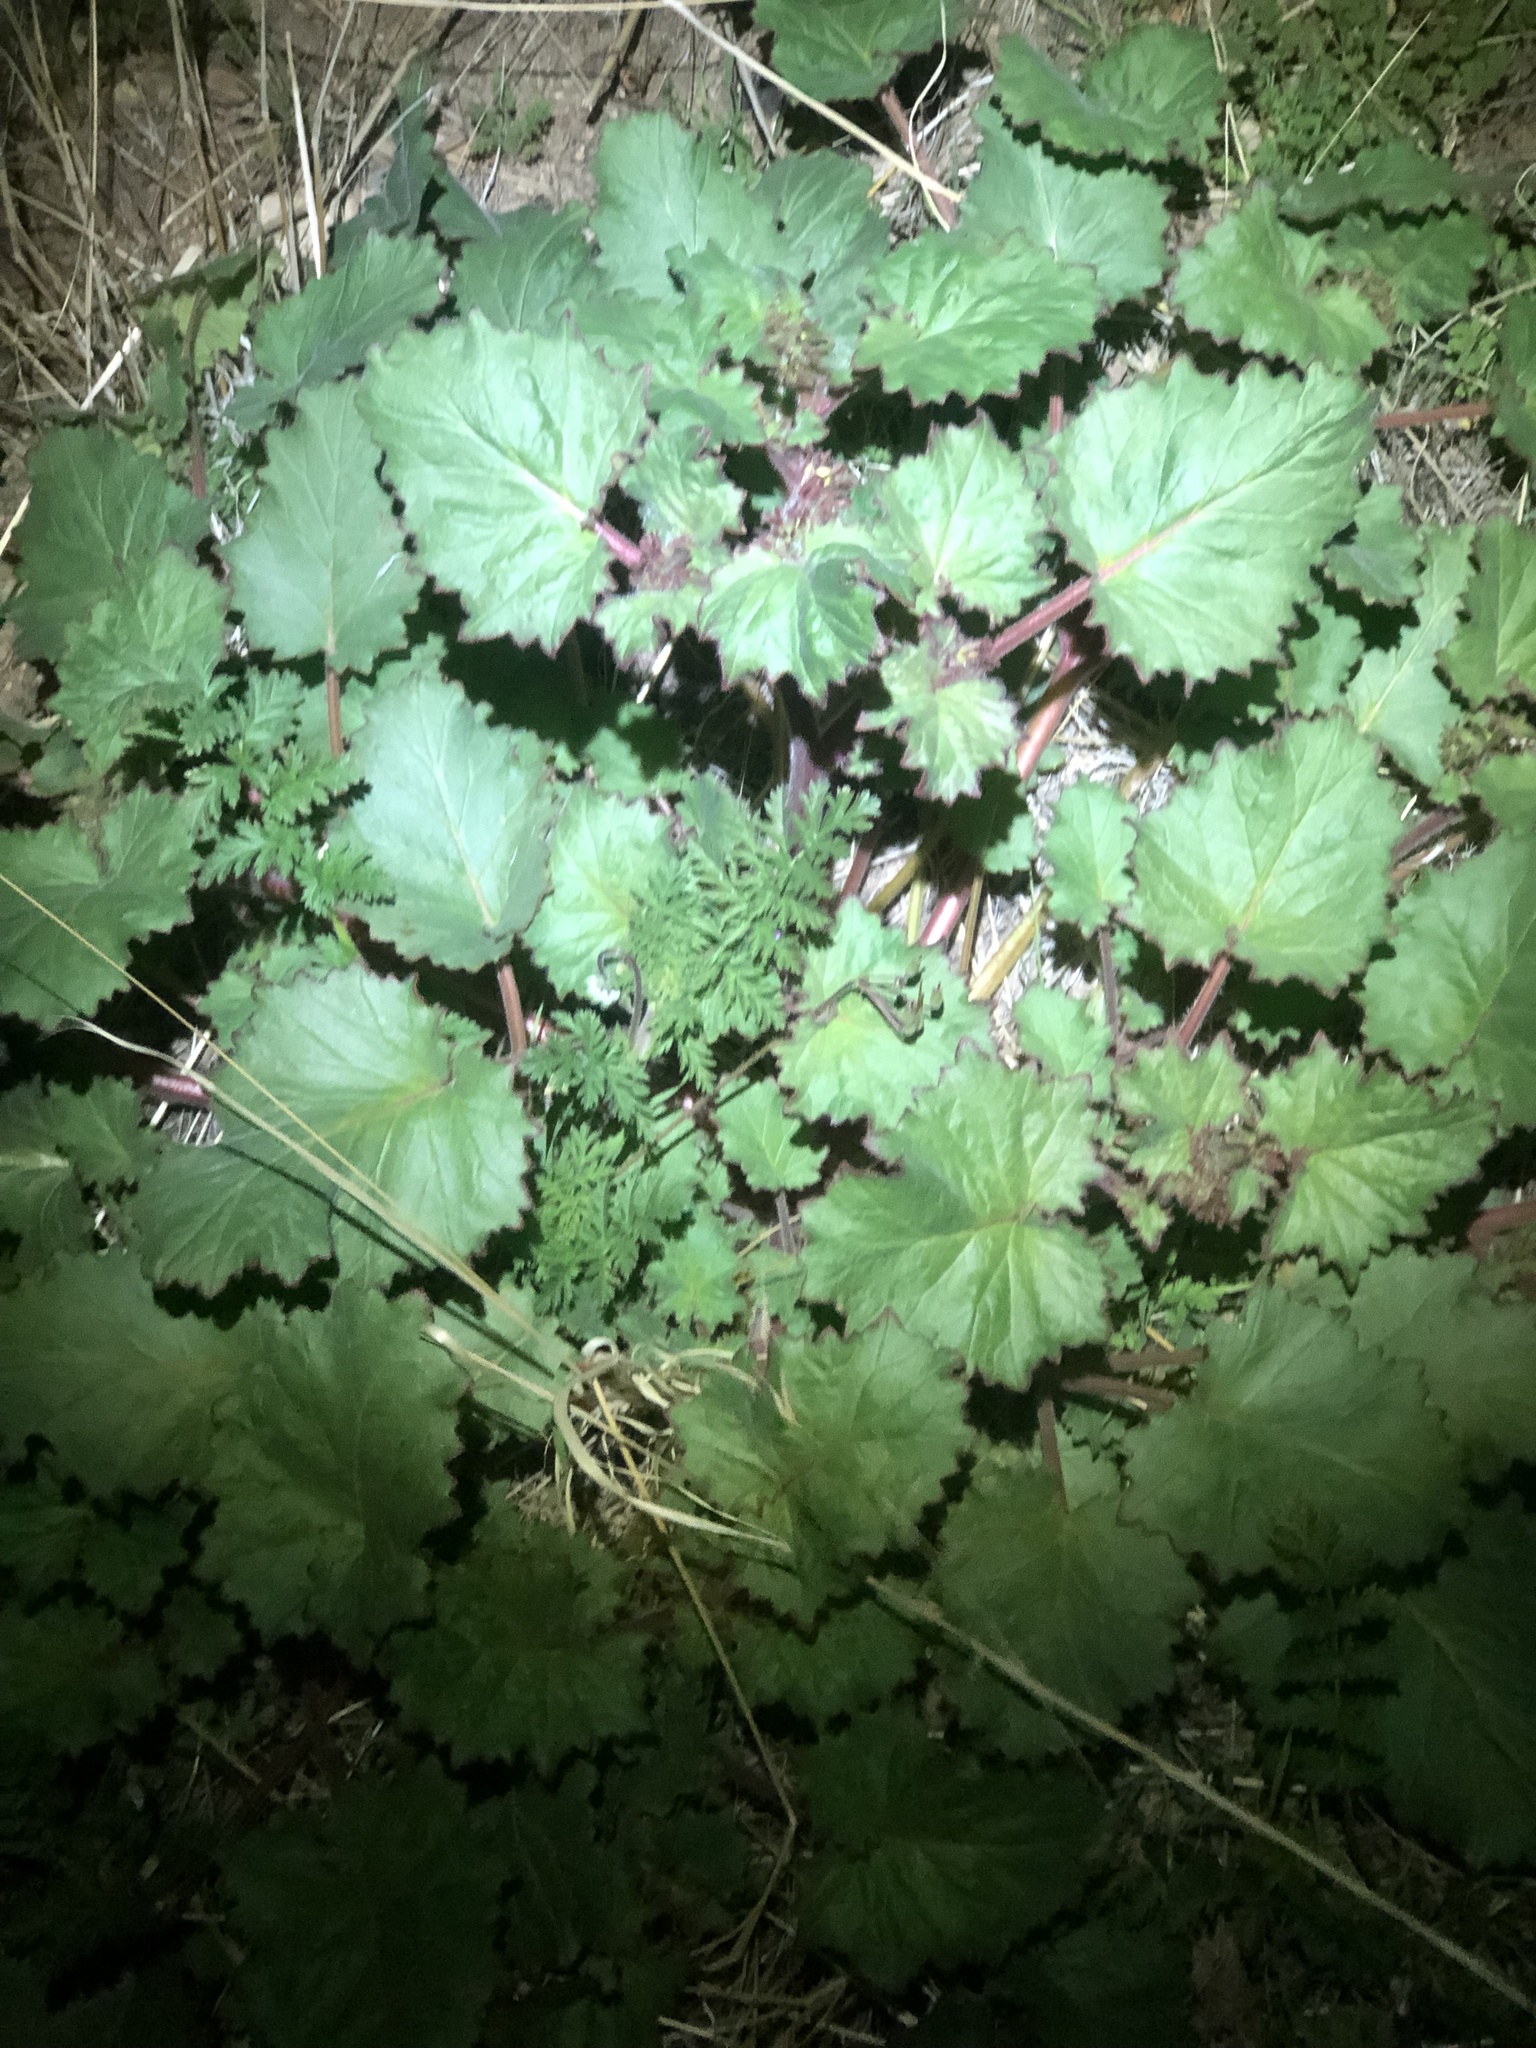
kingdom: Plantae
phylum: Tracheophyta
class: Magnoliopsida
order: Boraginales
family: Hydrophyllaceae
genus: Phacelia
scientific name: Phacelia minor
